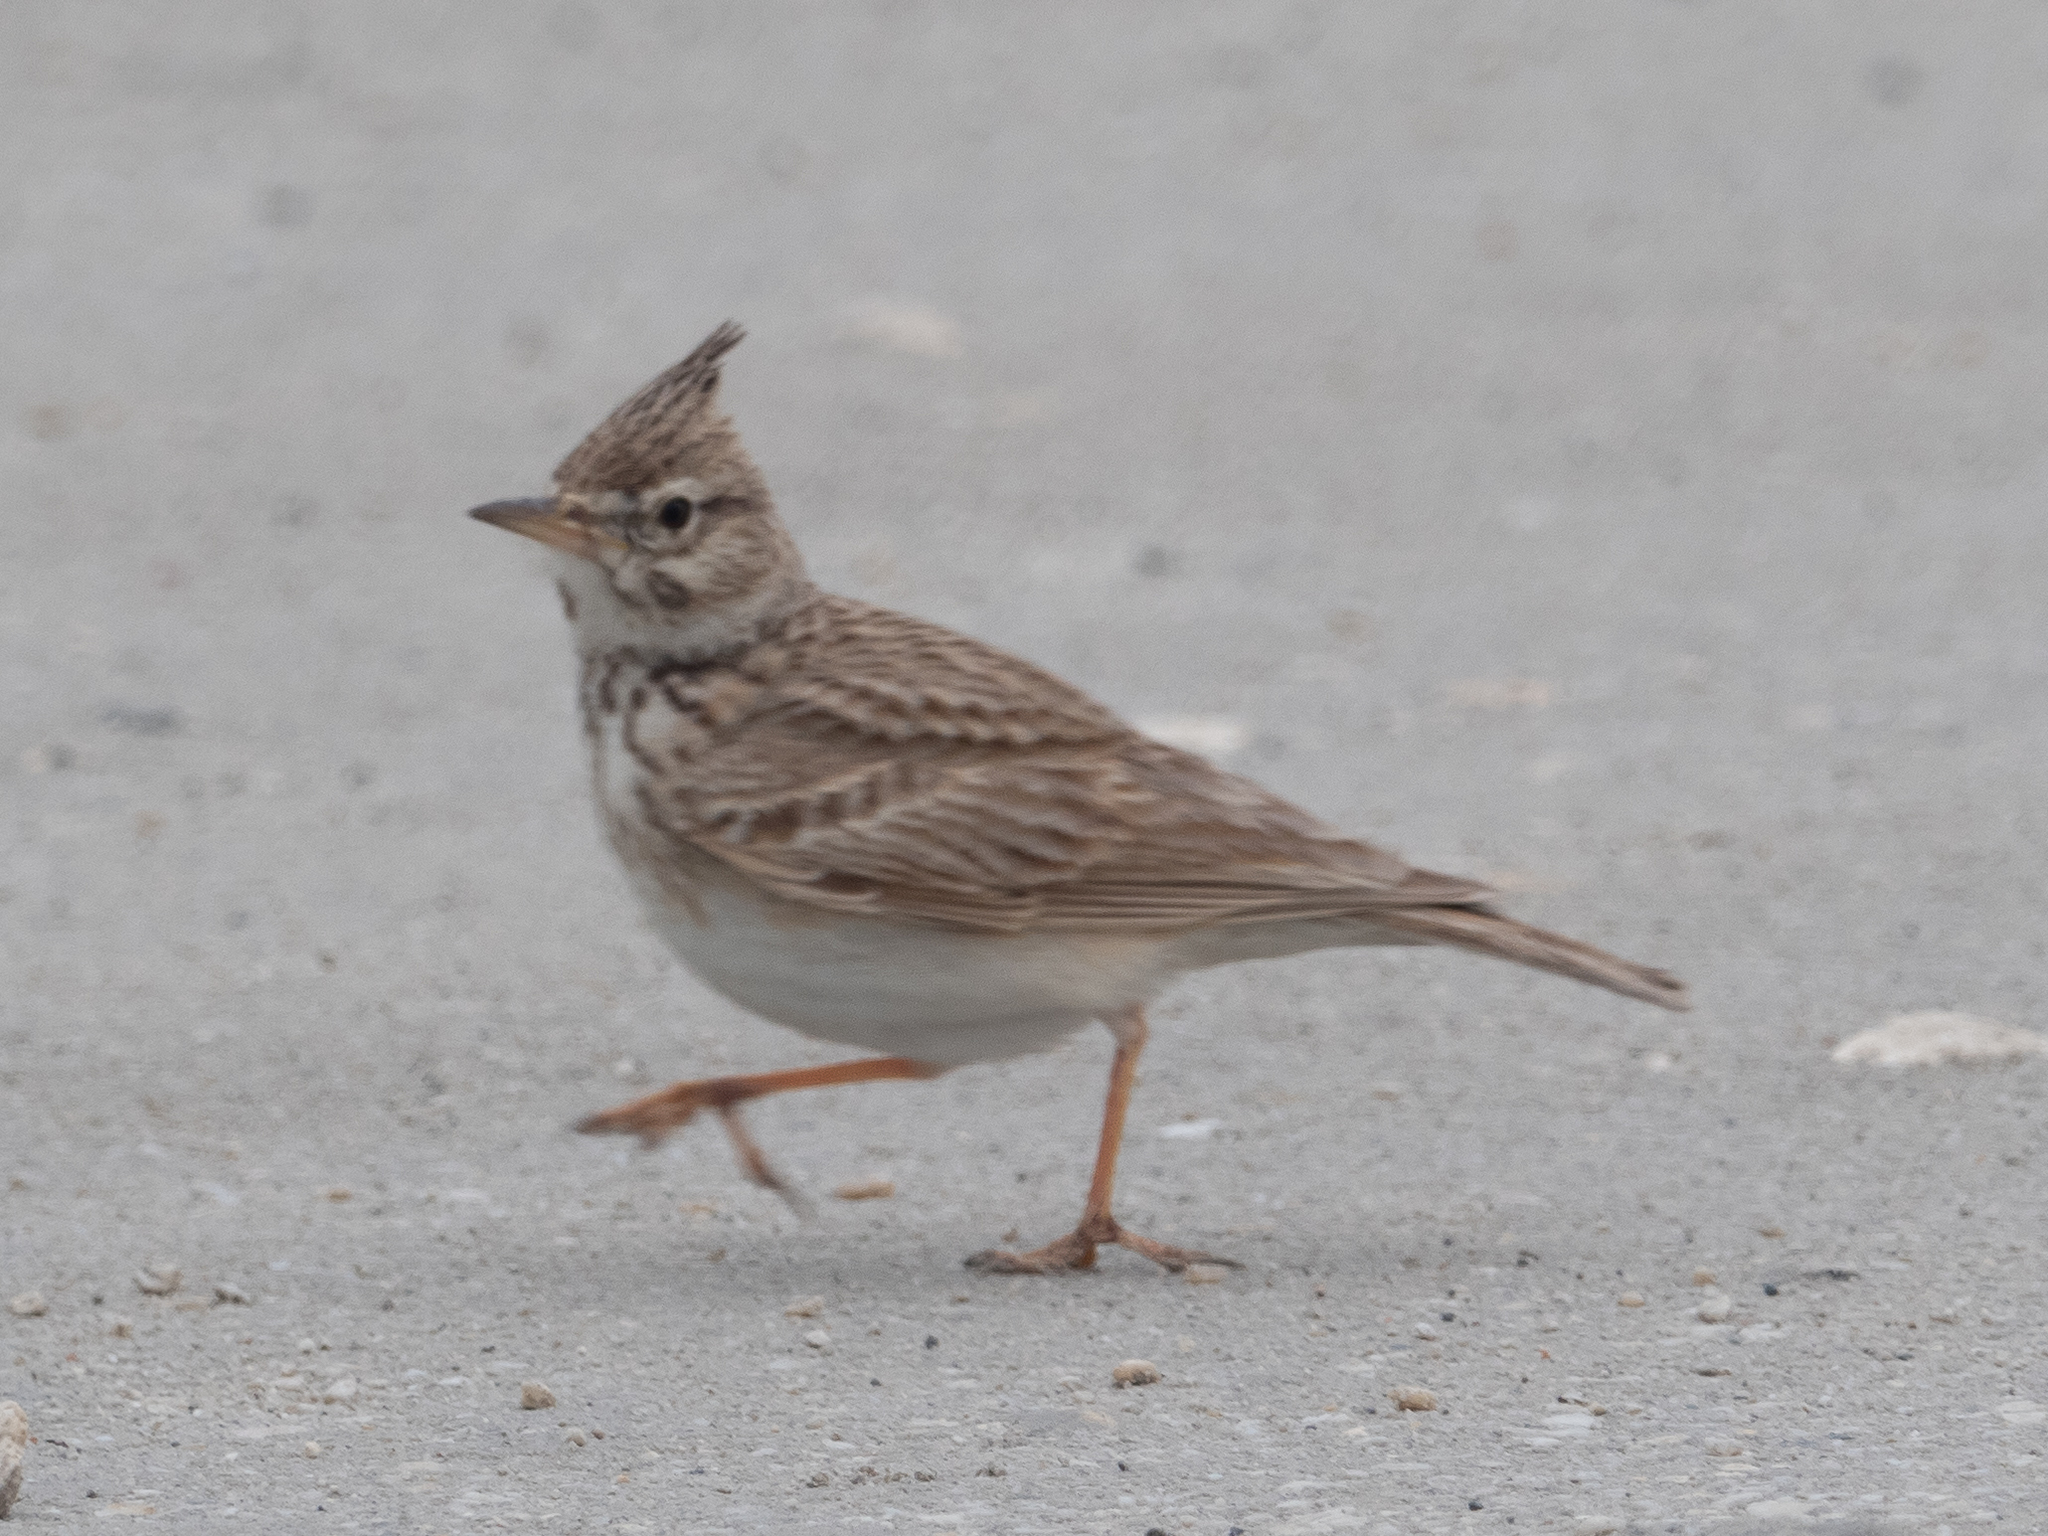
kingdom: Animalia
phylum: Chordata
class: Aves
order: Passeriformes
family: Alaudidae
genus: Galerida
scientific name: Galerida cristata
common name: Crested lark
